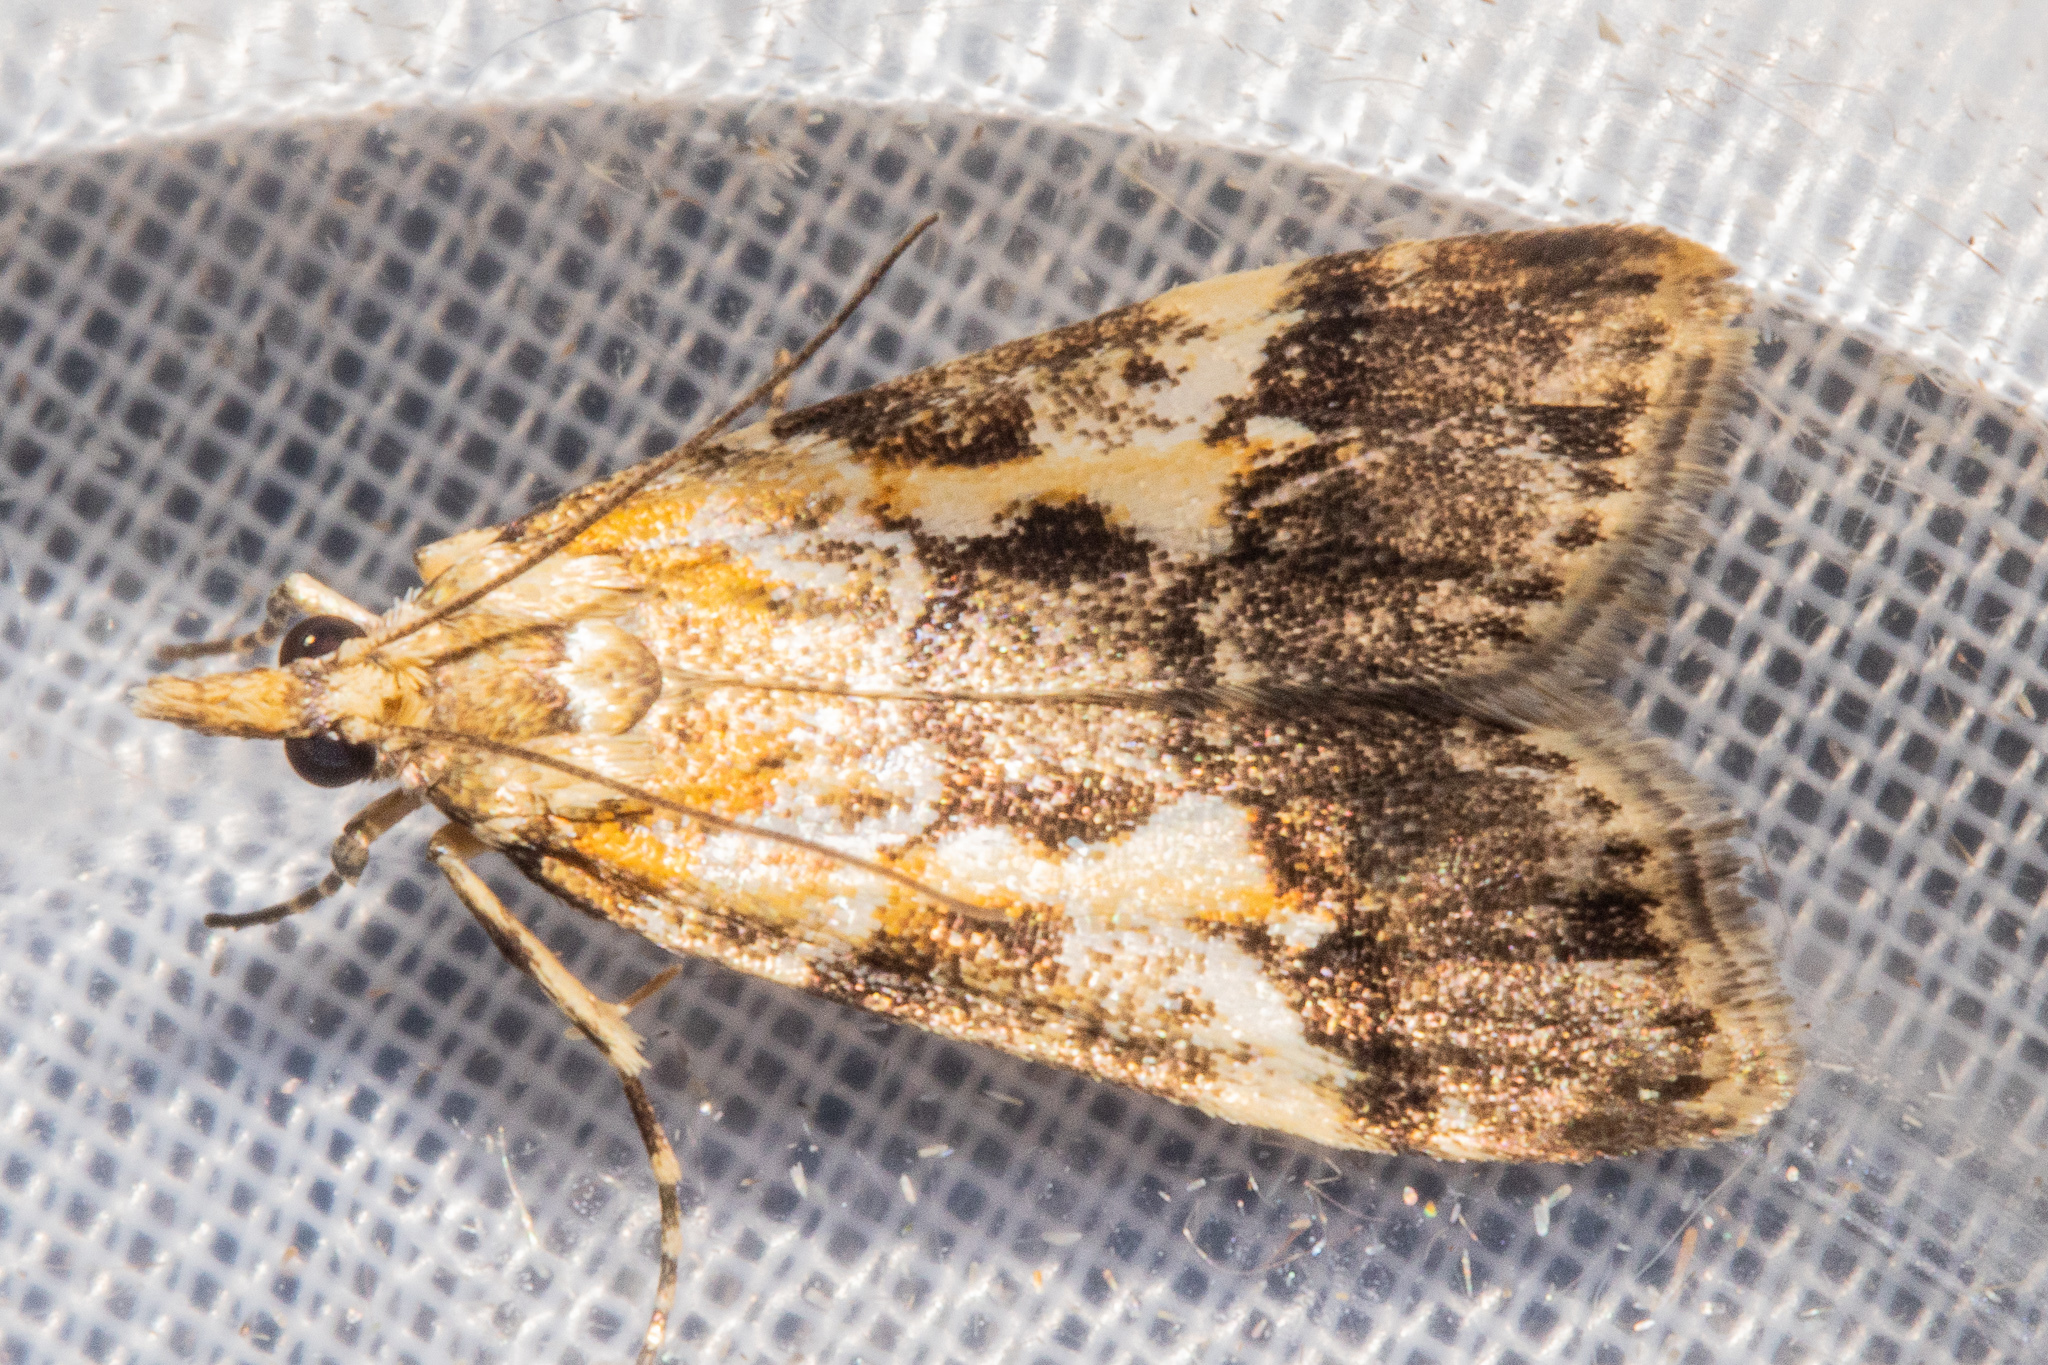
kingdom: Animalia
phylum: Arthropoda
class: Insecta
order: Lepidoptera
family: Crambidae
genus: Eudonia
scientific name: Eudonia characta
